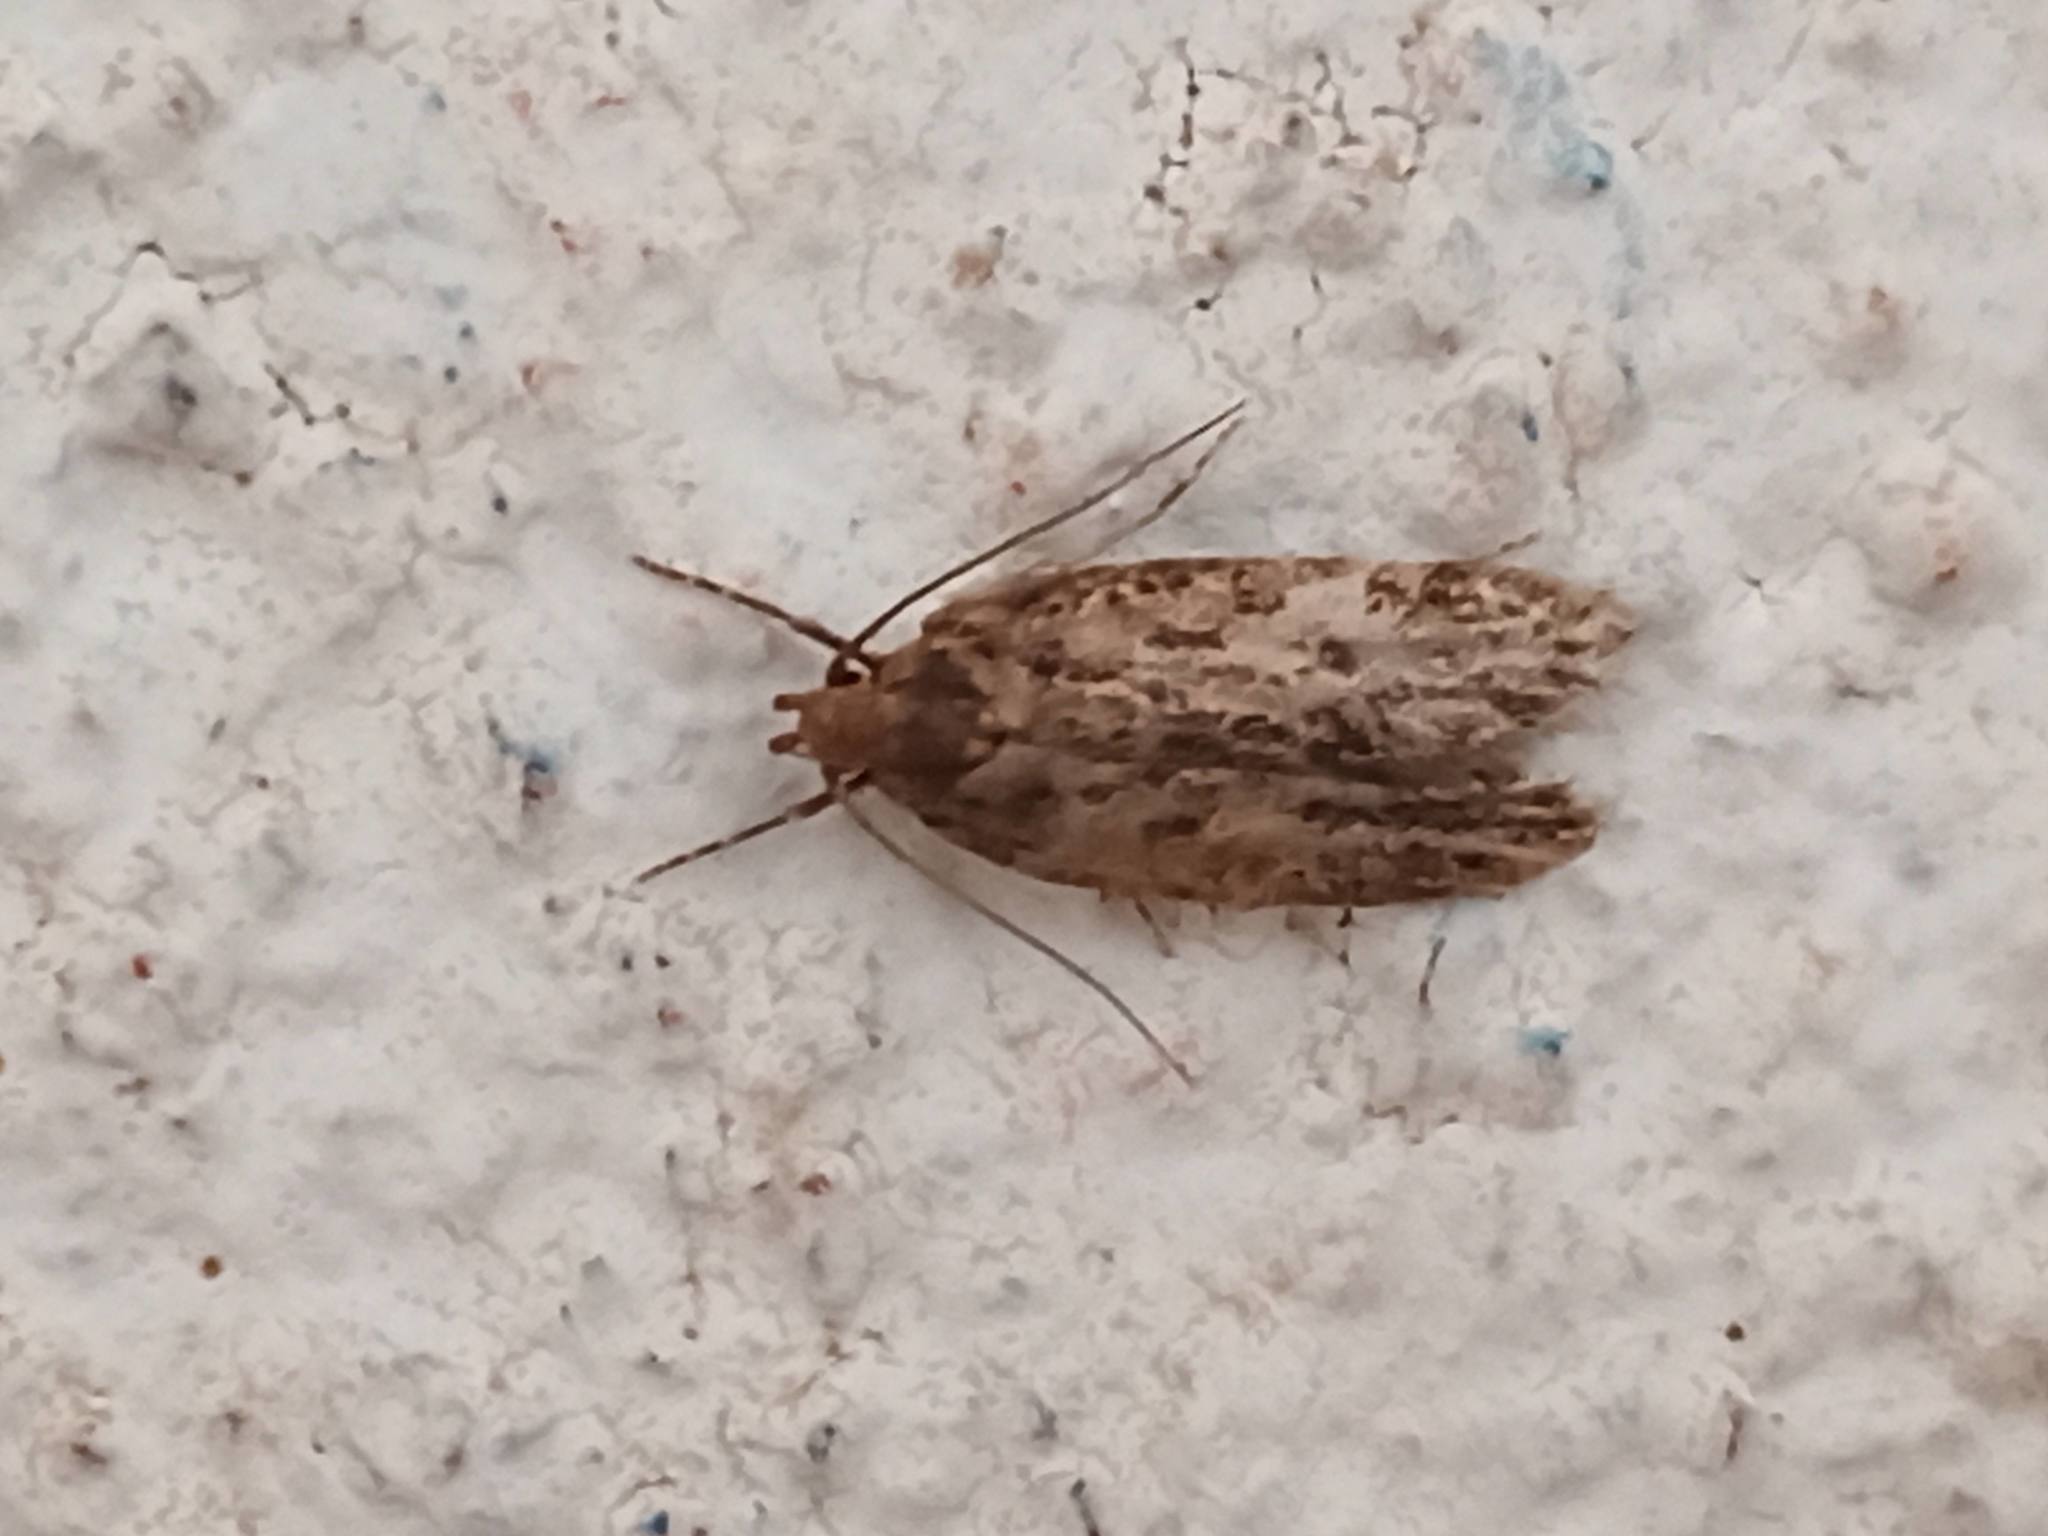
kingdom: Animalia
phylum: Arthropoda
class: Insecta
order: Lepidoptera
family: Oecophoridae
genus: Hofmannophila
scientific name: Hofmannophila pseudospretella
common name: Brown house moth
